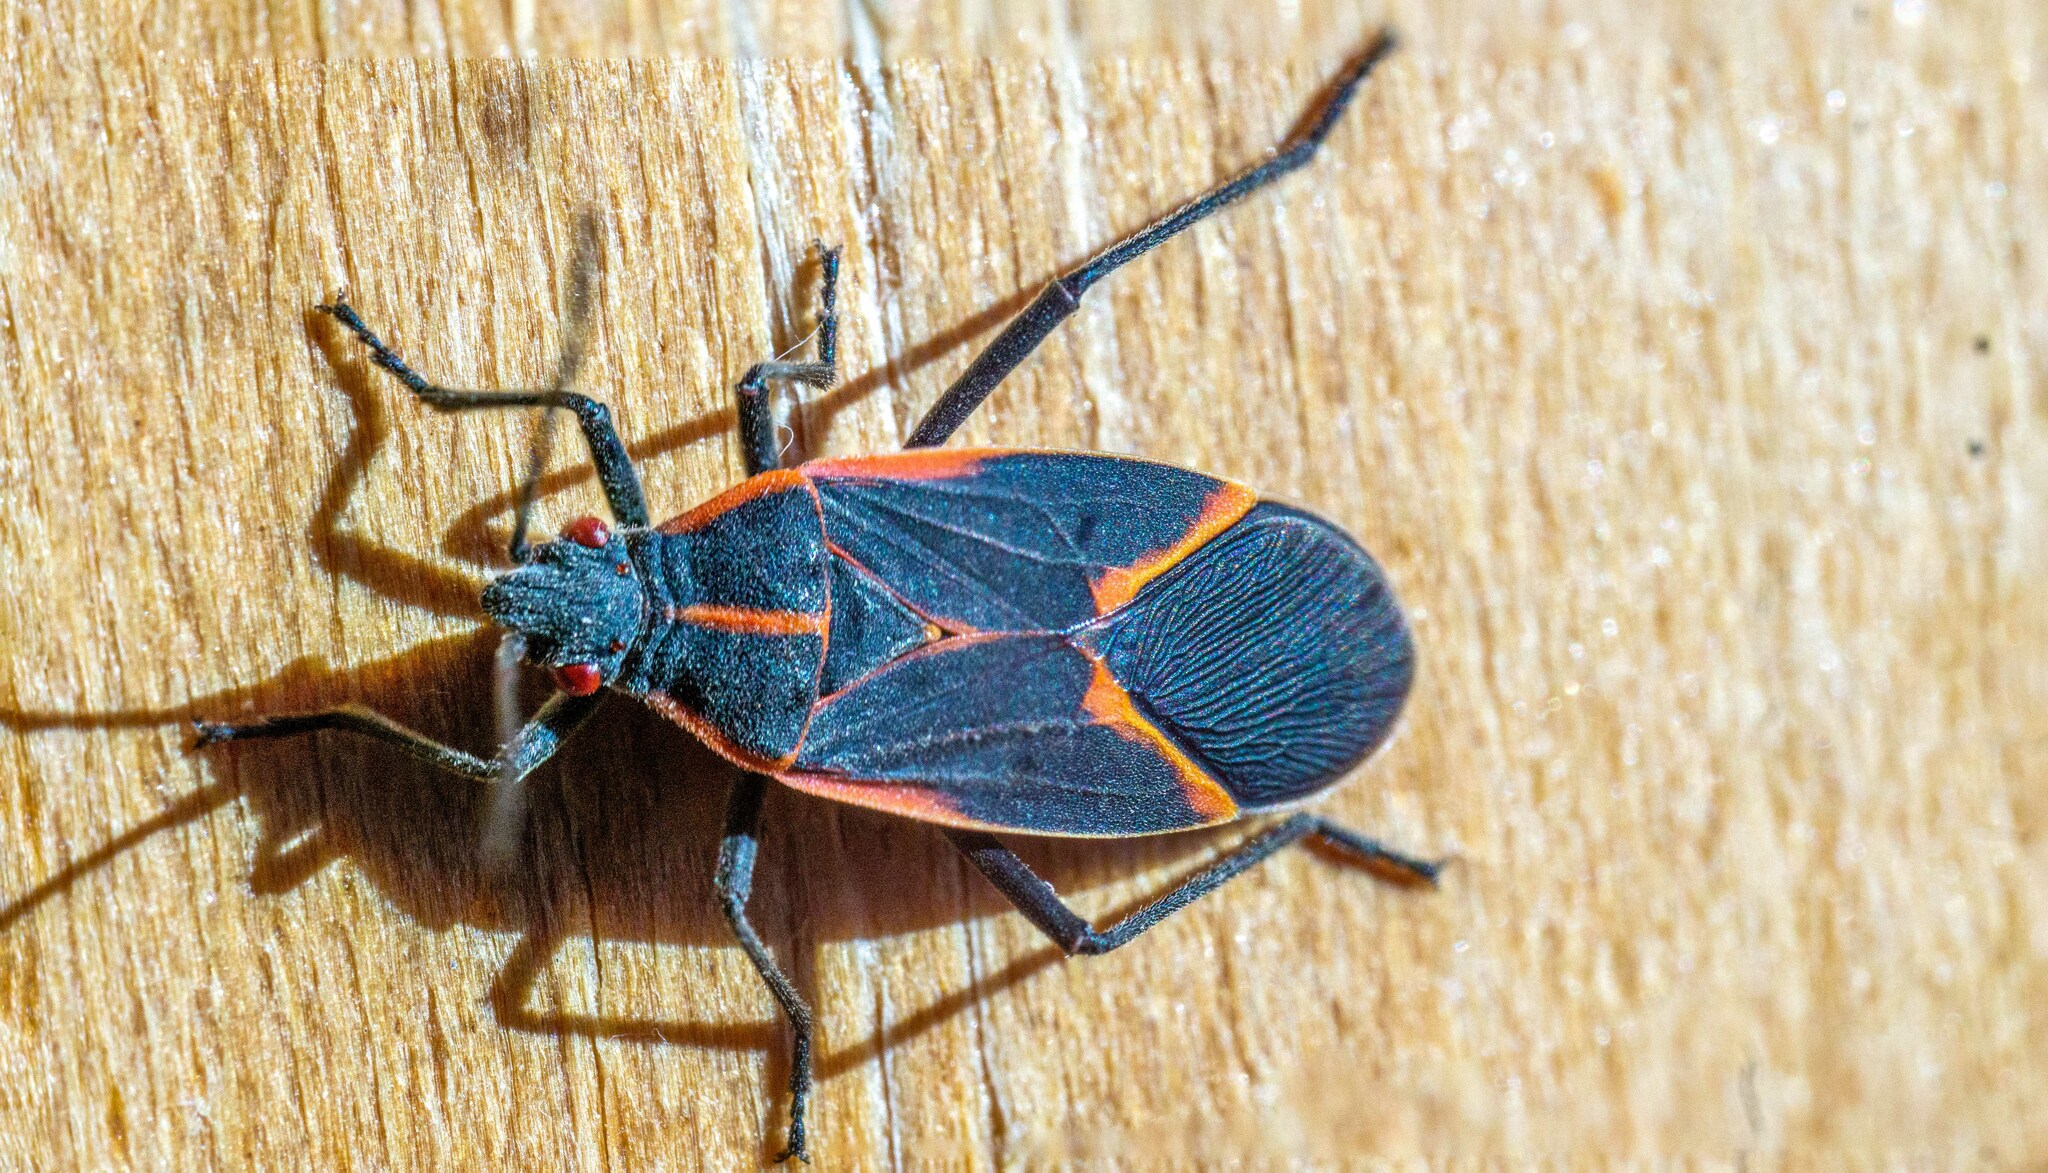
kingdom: Animalia
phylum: Arthropoda
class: Insecta
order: Hemiptera
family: Rhopalidae
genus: Boisea
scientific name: Boisea trivittata
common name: Boxelder bug
